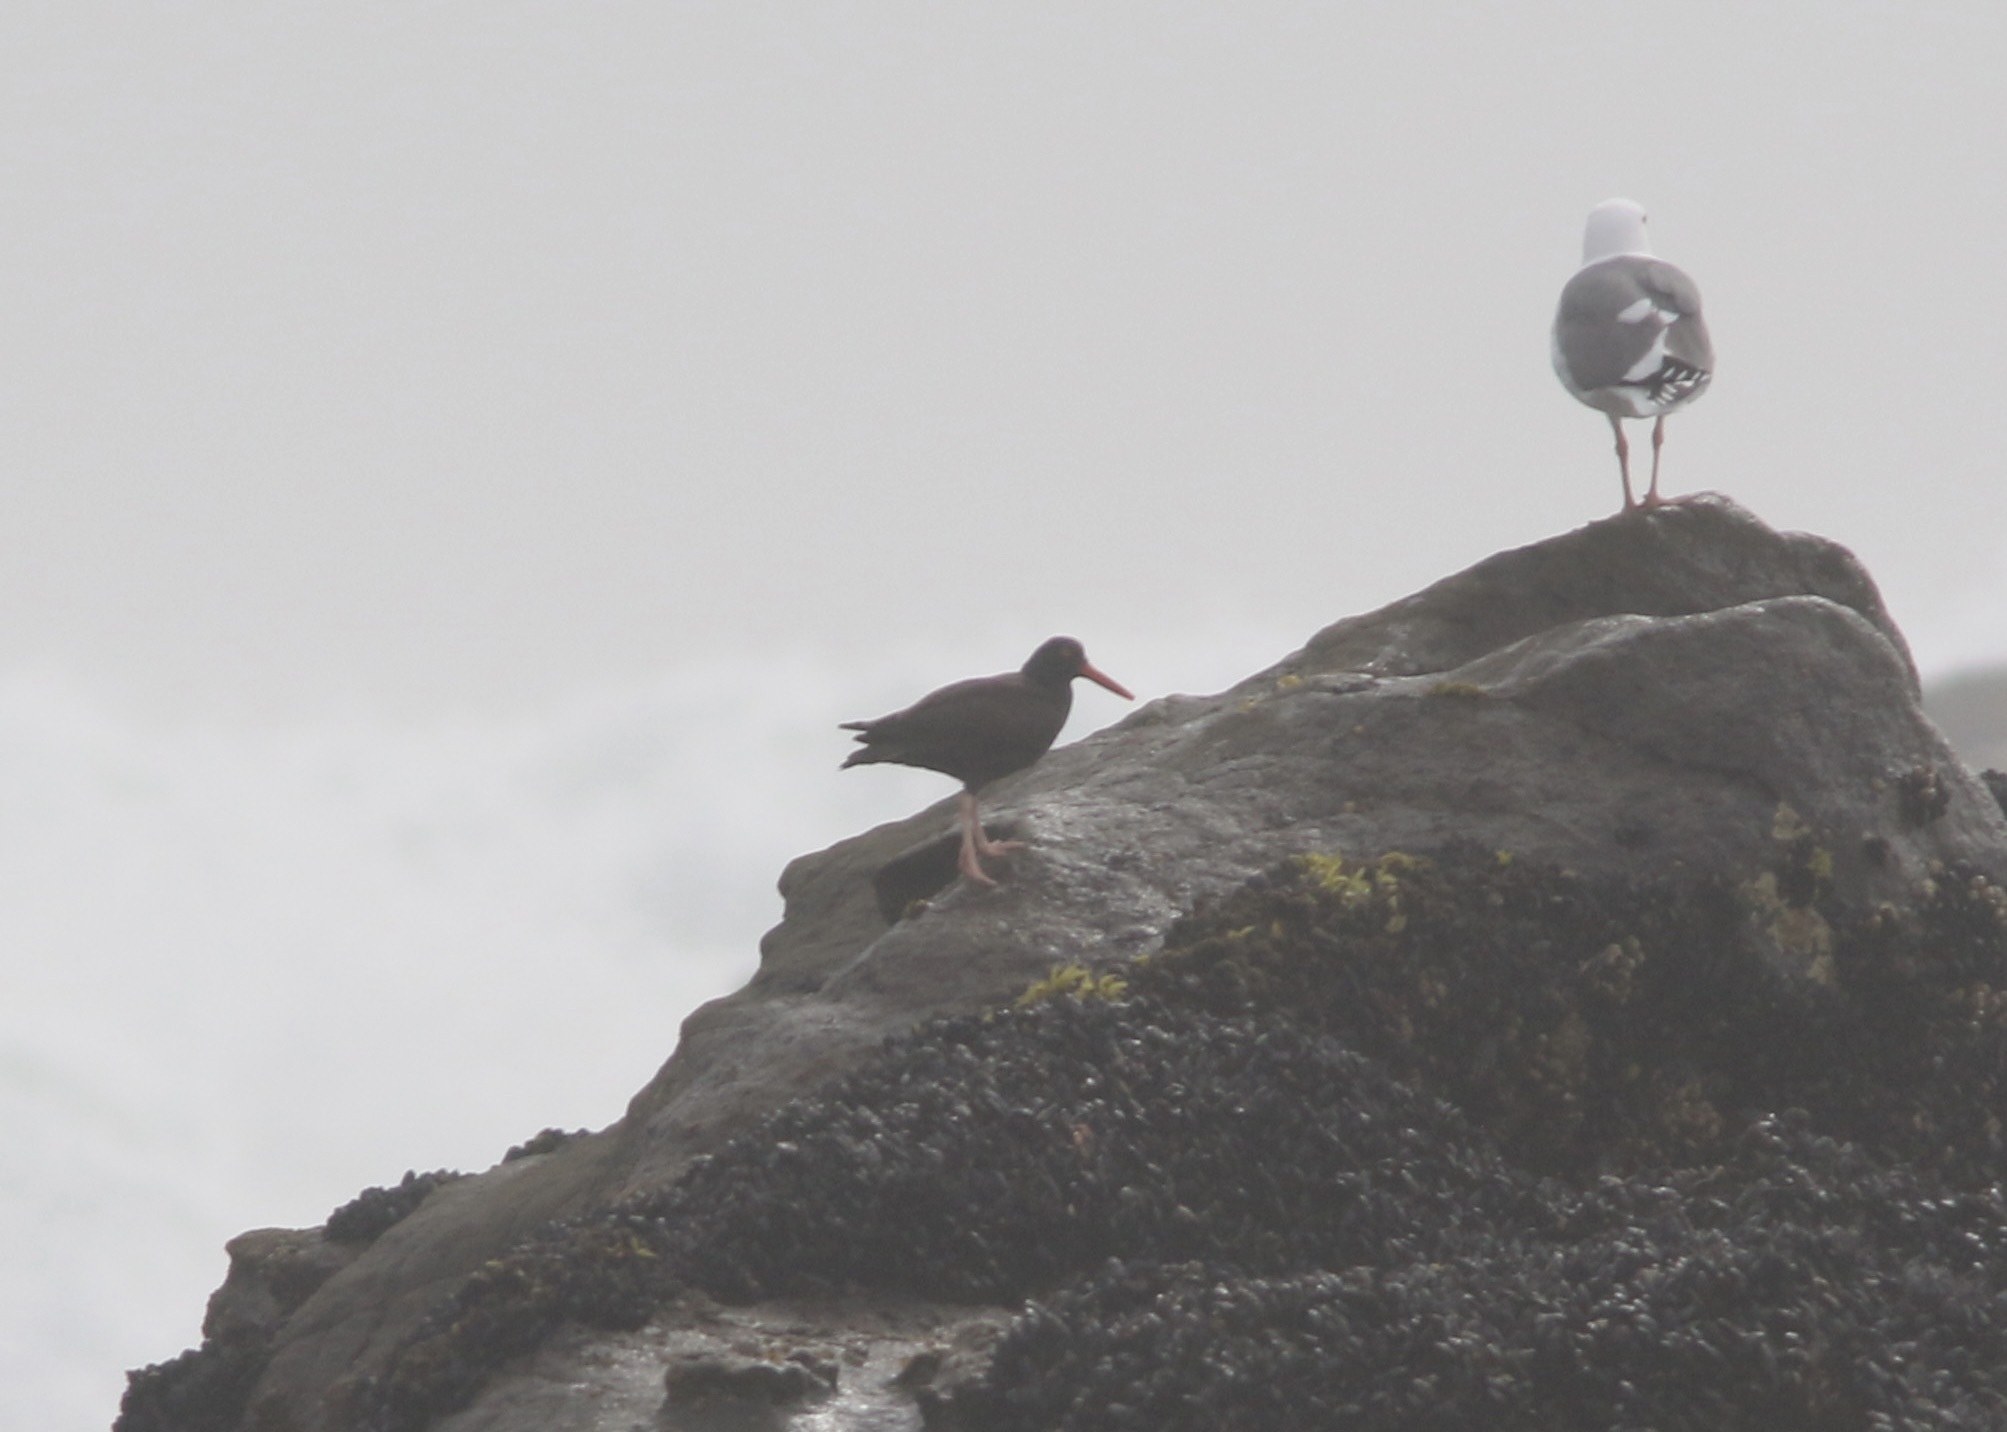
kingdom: Animalia
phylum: Chordata
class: Aves
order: Charadriiformes
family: Haematopodidae
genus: Haematopus
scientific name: Haematopus bachmani
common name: Black oystercatcher
